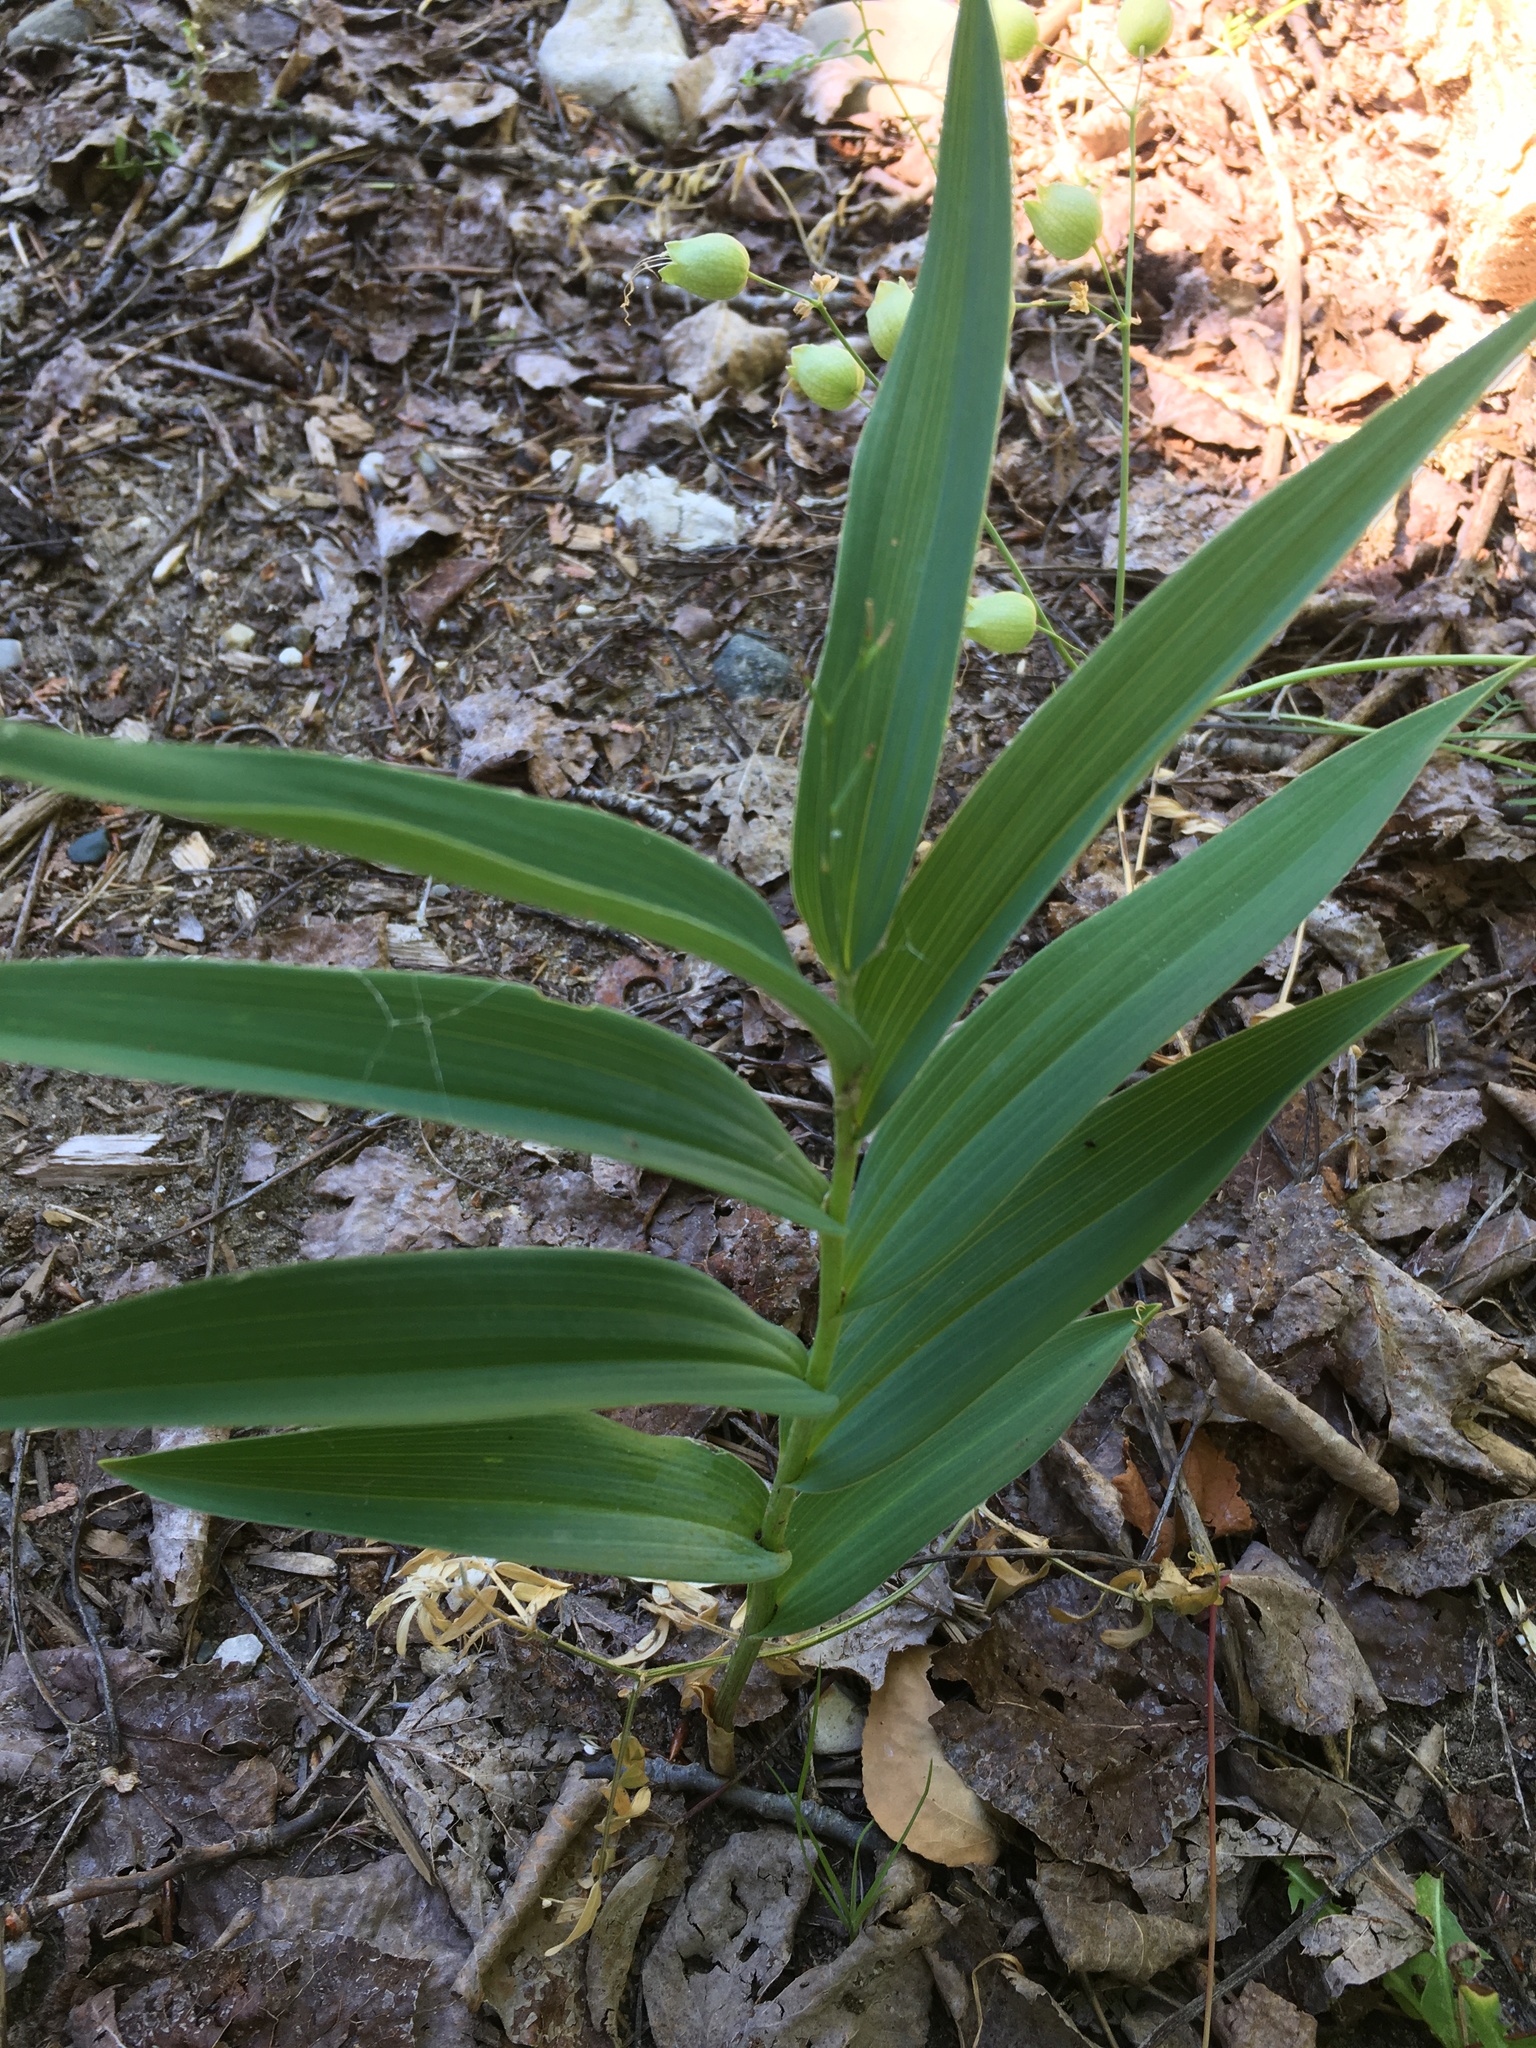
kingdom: Plantae
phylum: Tracheophyta
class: Liliopsida
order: Asparagales
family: Asparagaceae
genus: Maianthemum
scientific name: Maianthemum stellatum
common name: Little false solomon's seal
